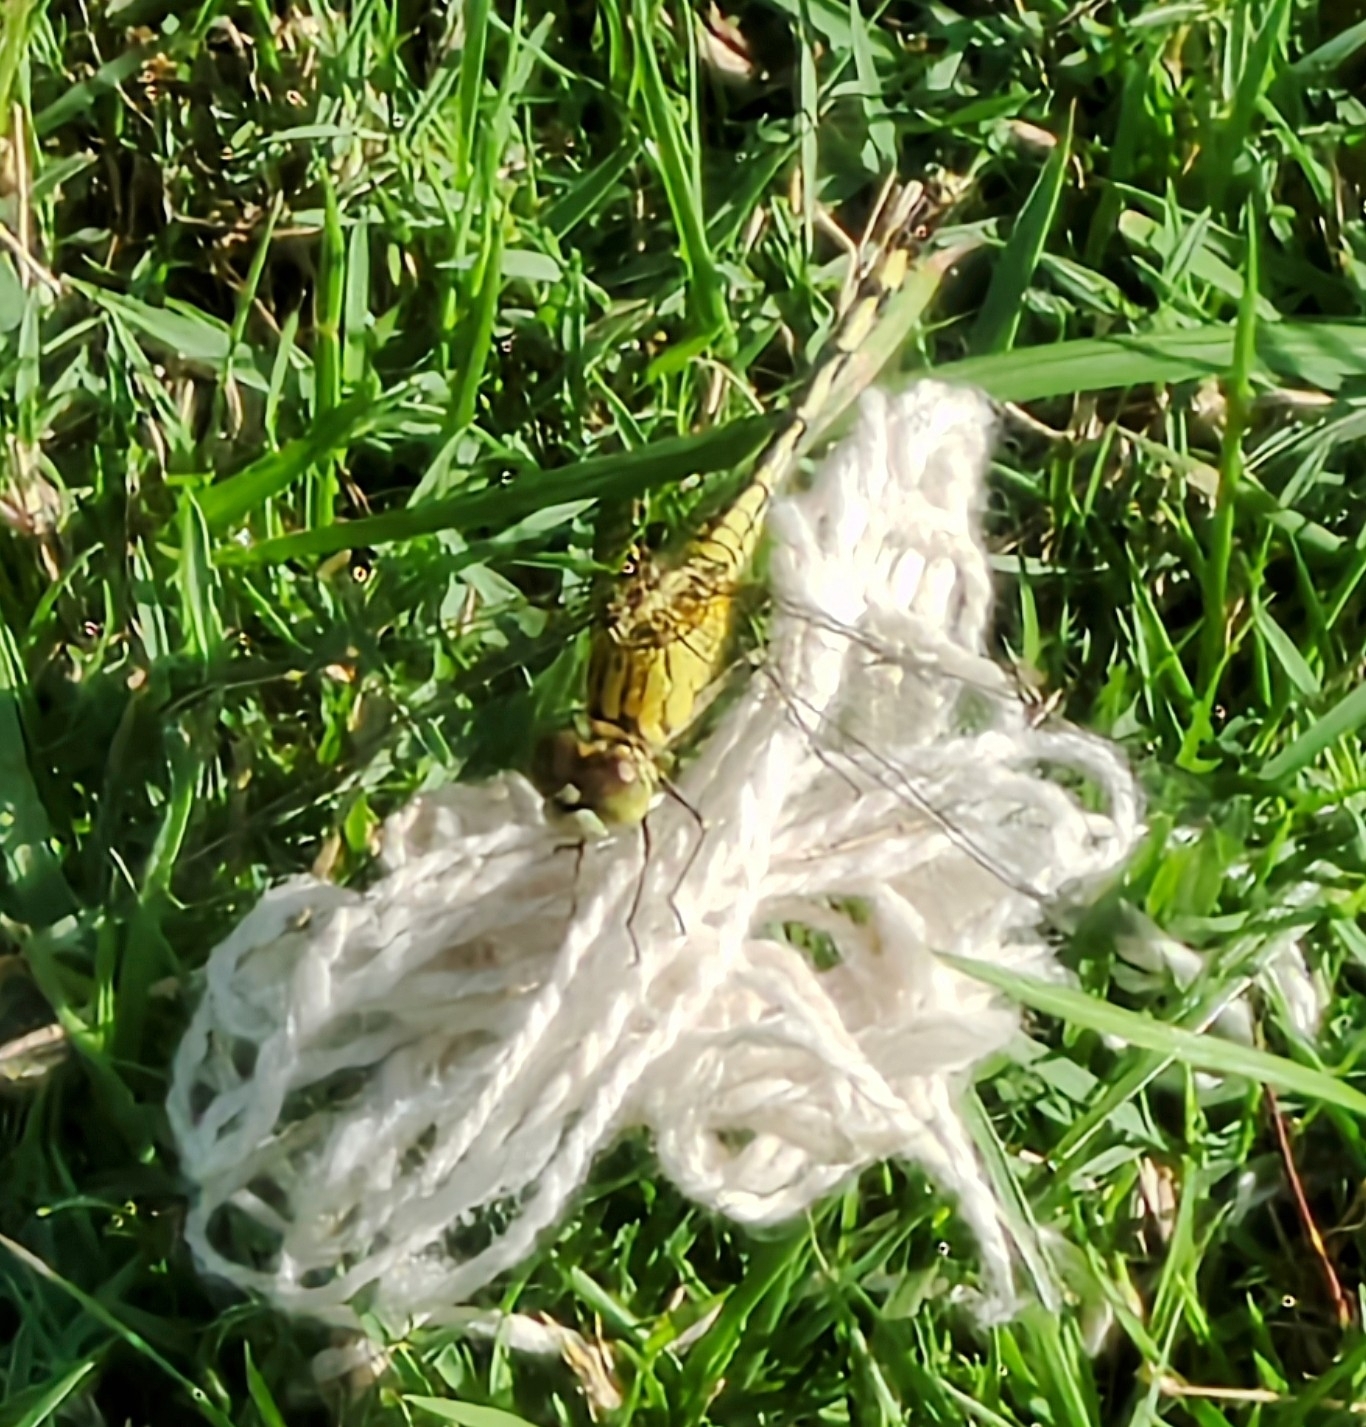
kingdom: Animalia
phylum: Arthropoda
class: Insecta
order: Odonata
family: Libellulidae
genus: Diplacodes
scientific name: Diplacodes trivialis
